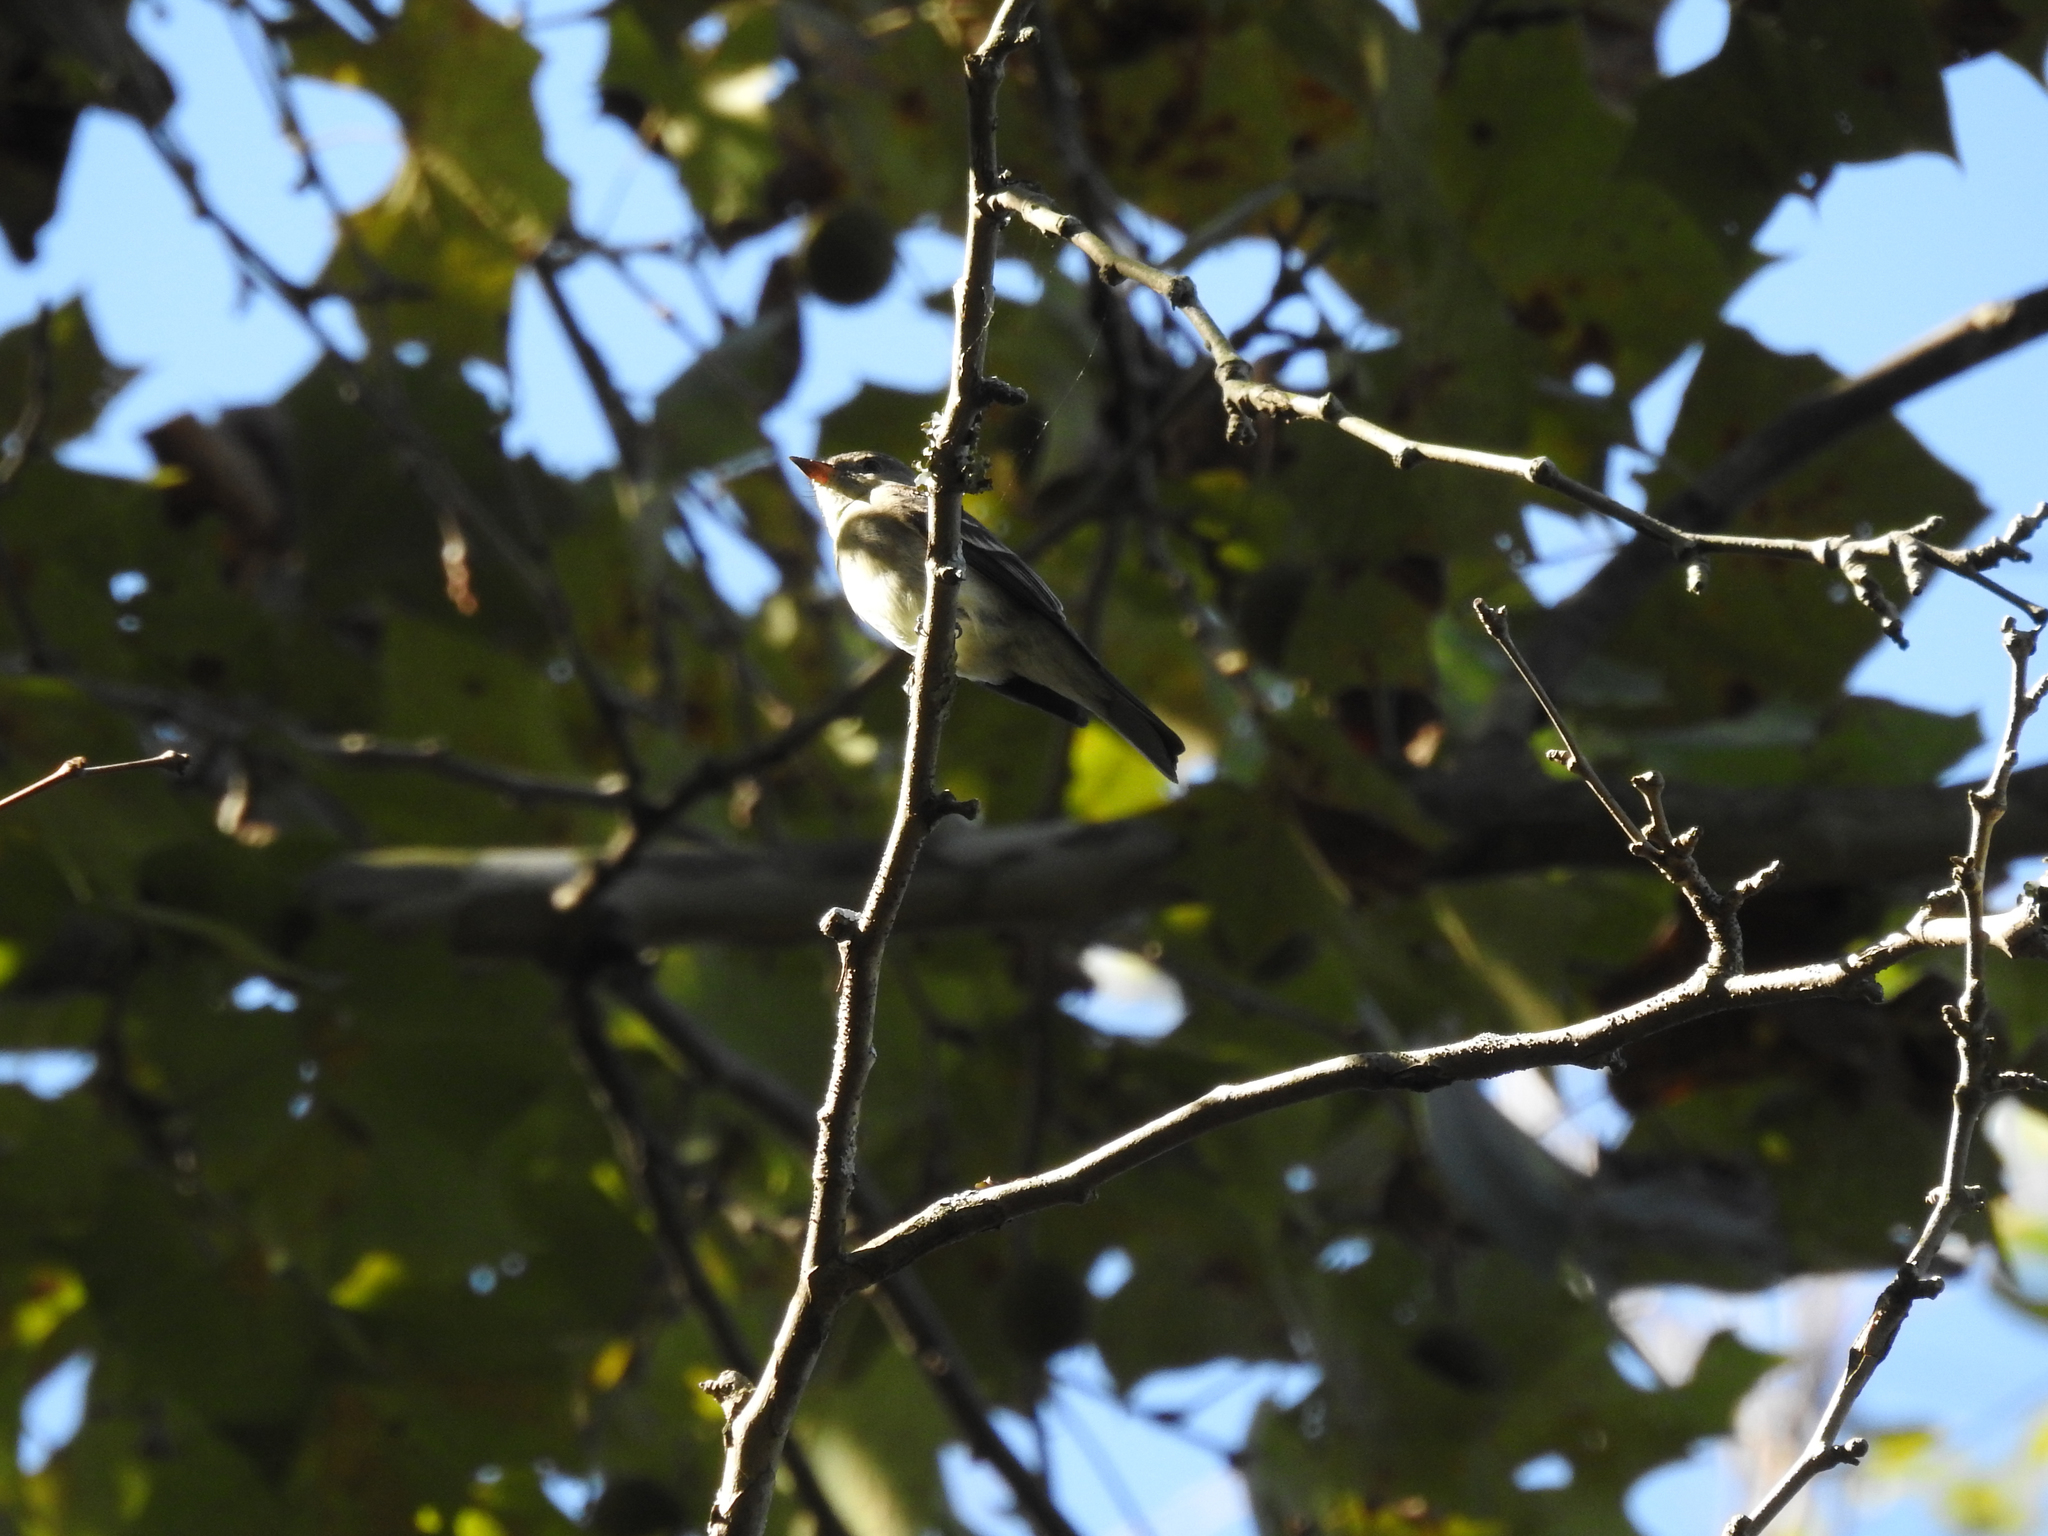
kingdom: Animalia
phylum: Chordata
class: Aves
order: Passeriformes
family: Tyrannidae
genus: Contopus
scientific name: Contopus virens
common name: Eastern wood-pewee
